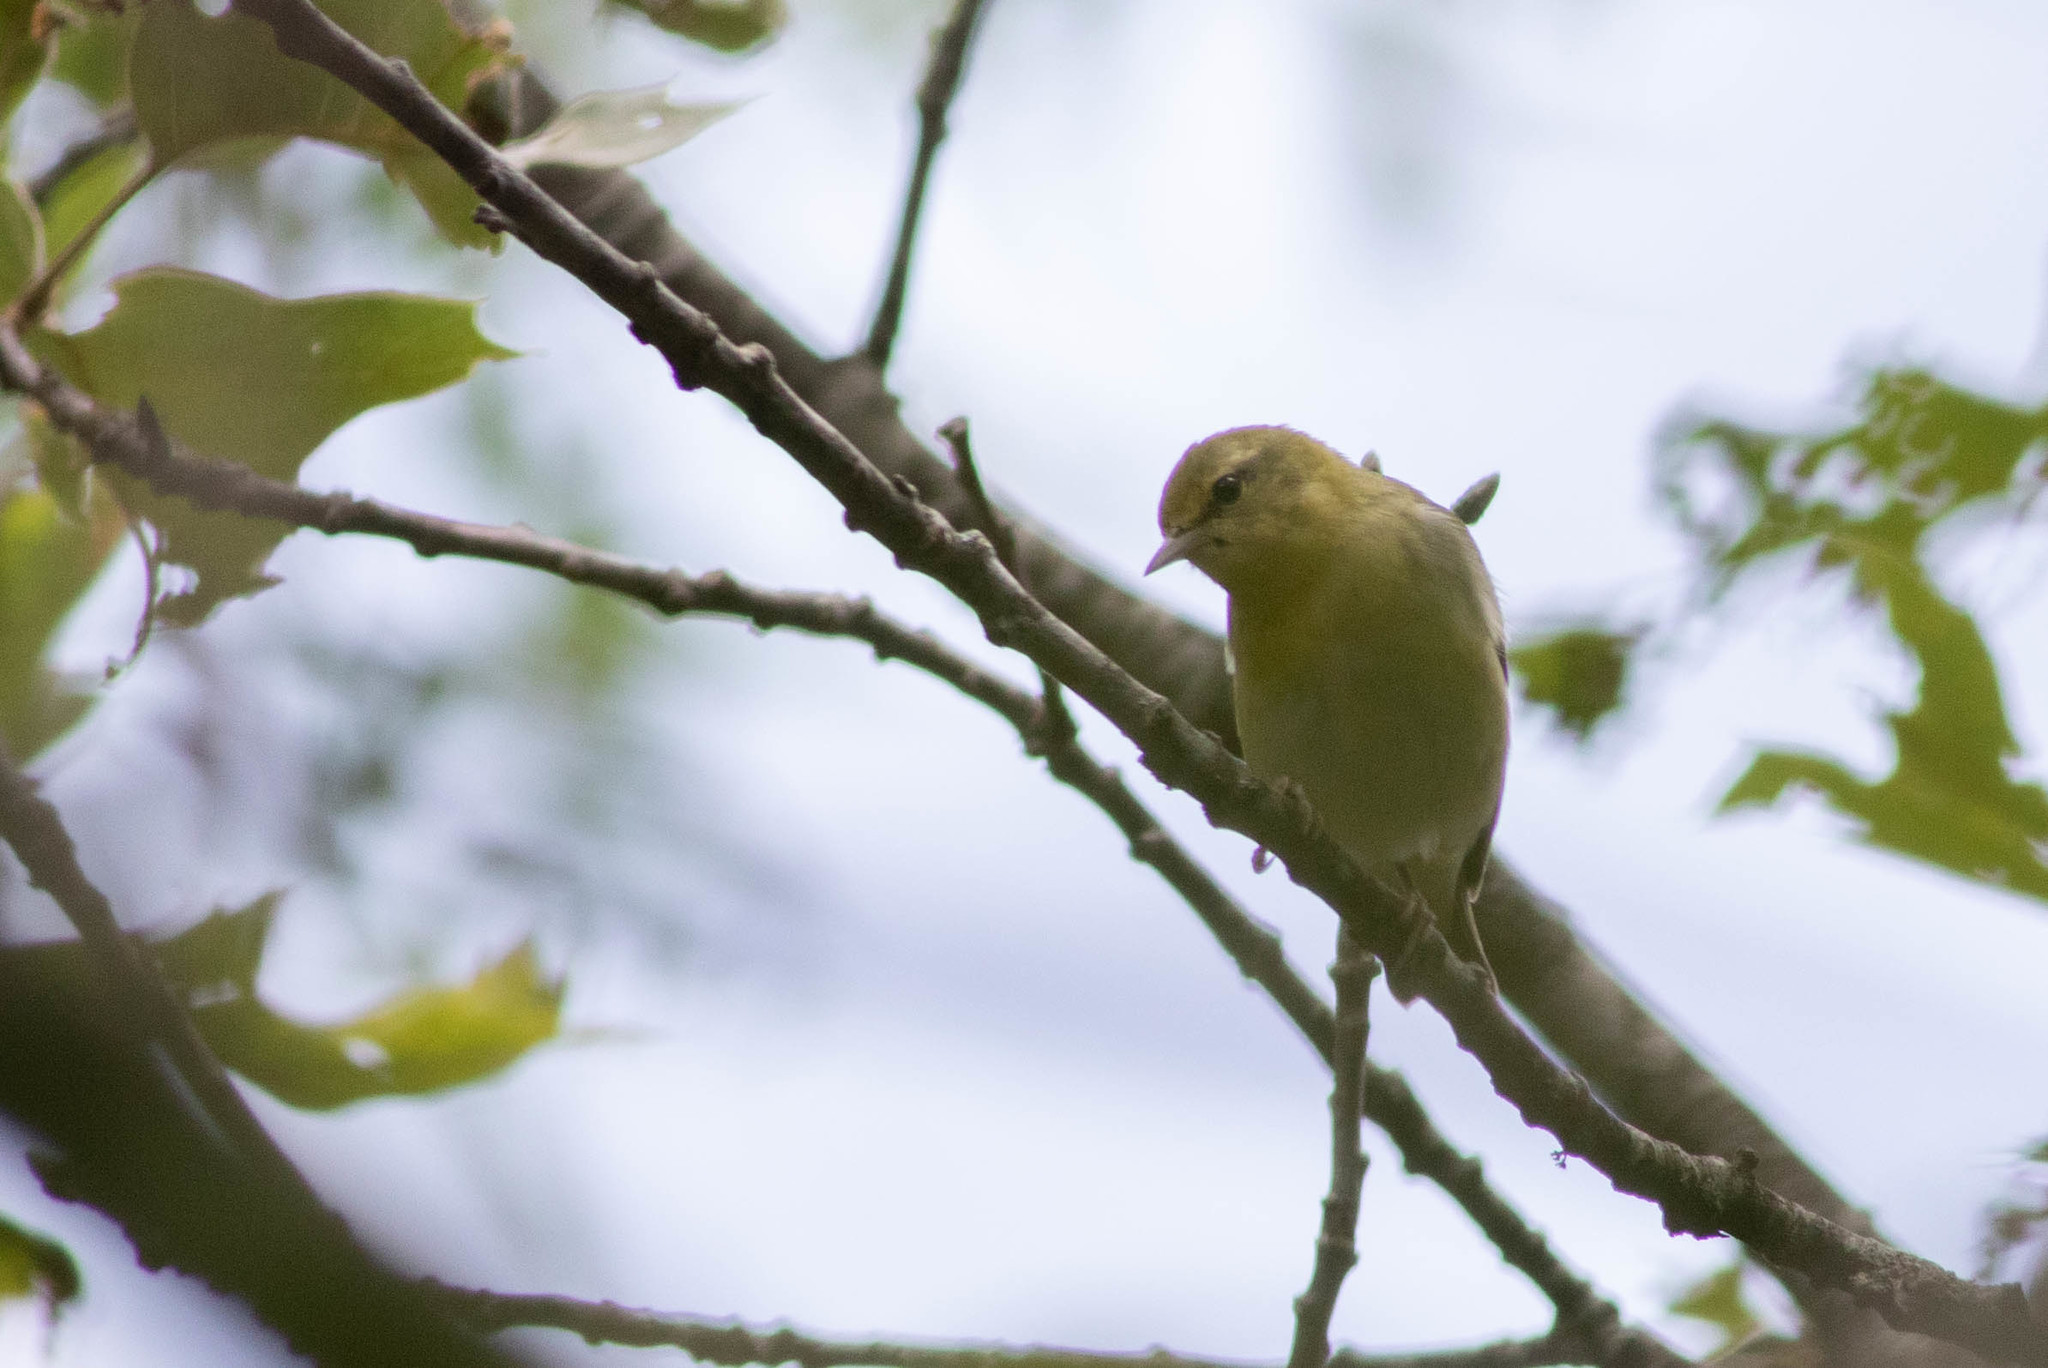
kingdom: Animalia
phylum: Chordata
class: Aves
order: Passeriformes
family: Parulidae
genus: Leiothlypis
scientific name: Leiothlypis peregrina
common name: Tennessee warbler
